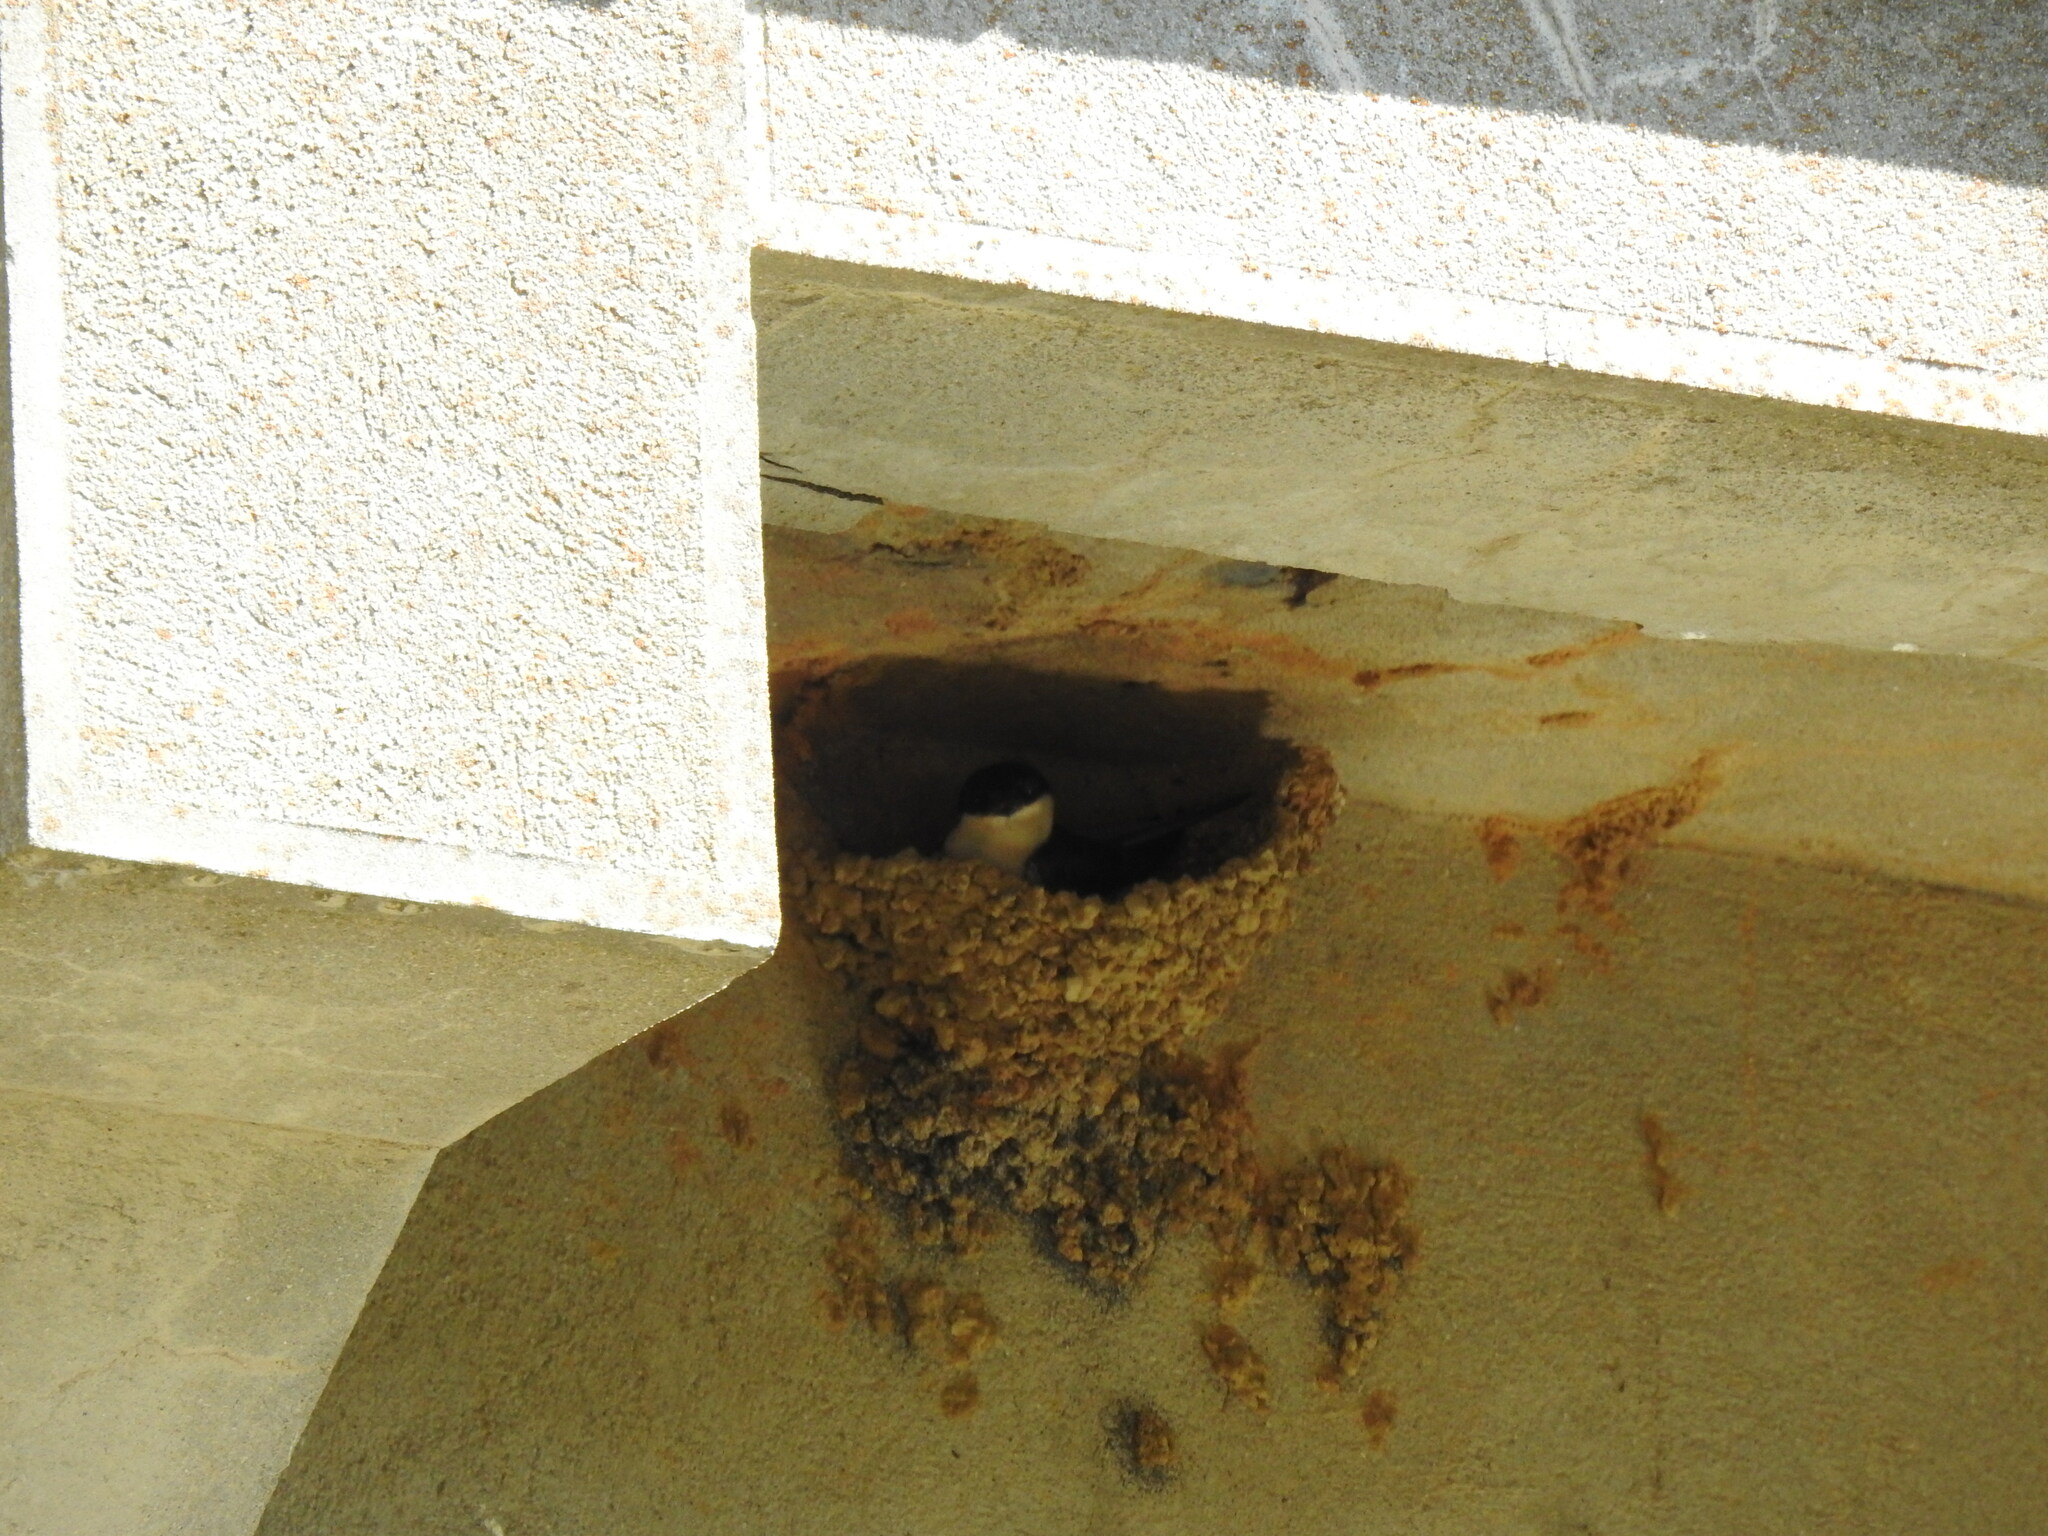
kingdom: Animalia
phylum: Chordata
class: Aves
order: Passeriformes
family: Hirundinidae
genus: Delichon
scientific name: Delichon urbicum
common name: Common house martin
